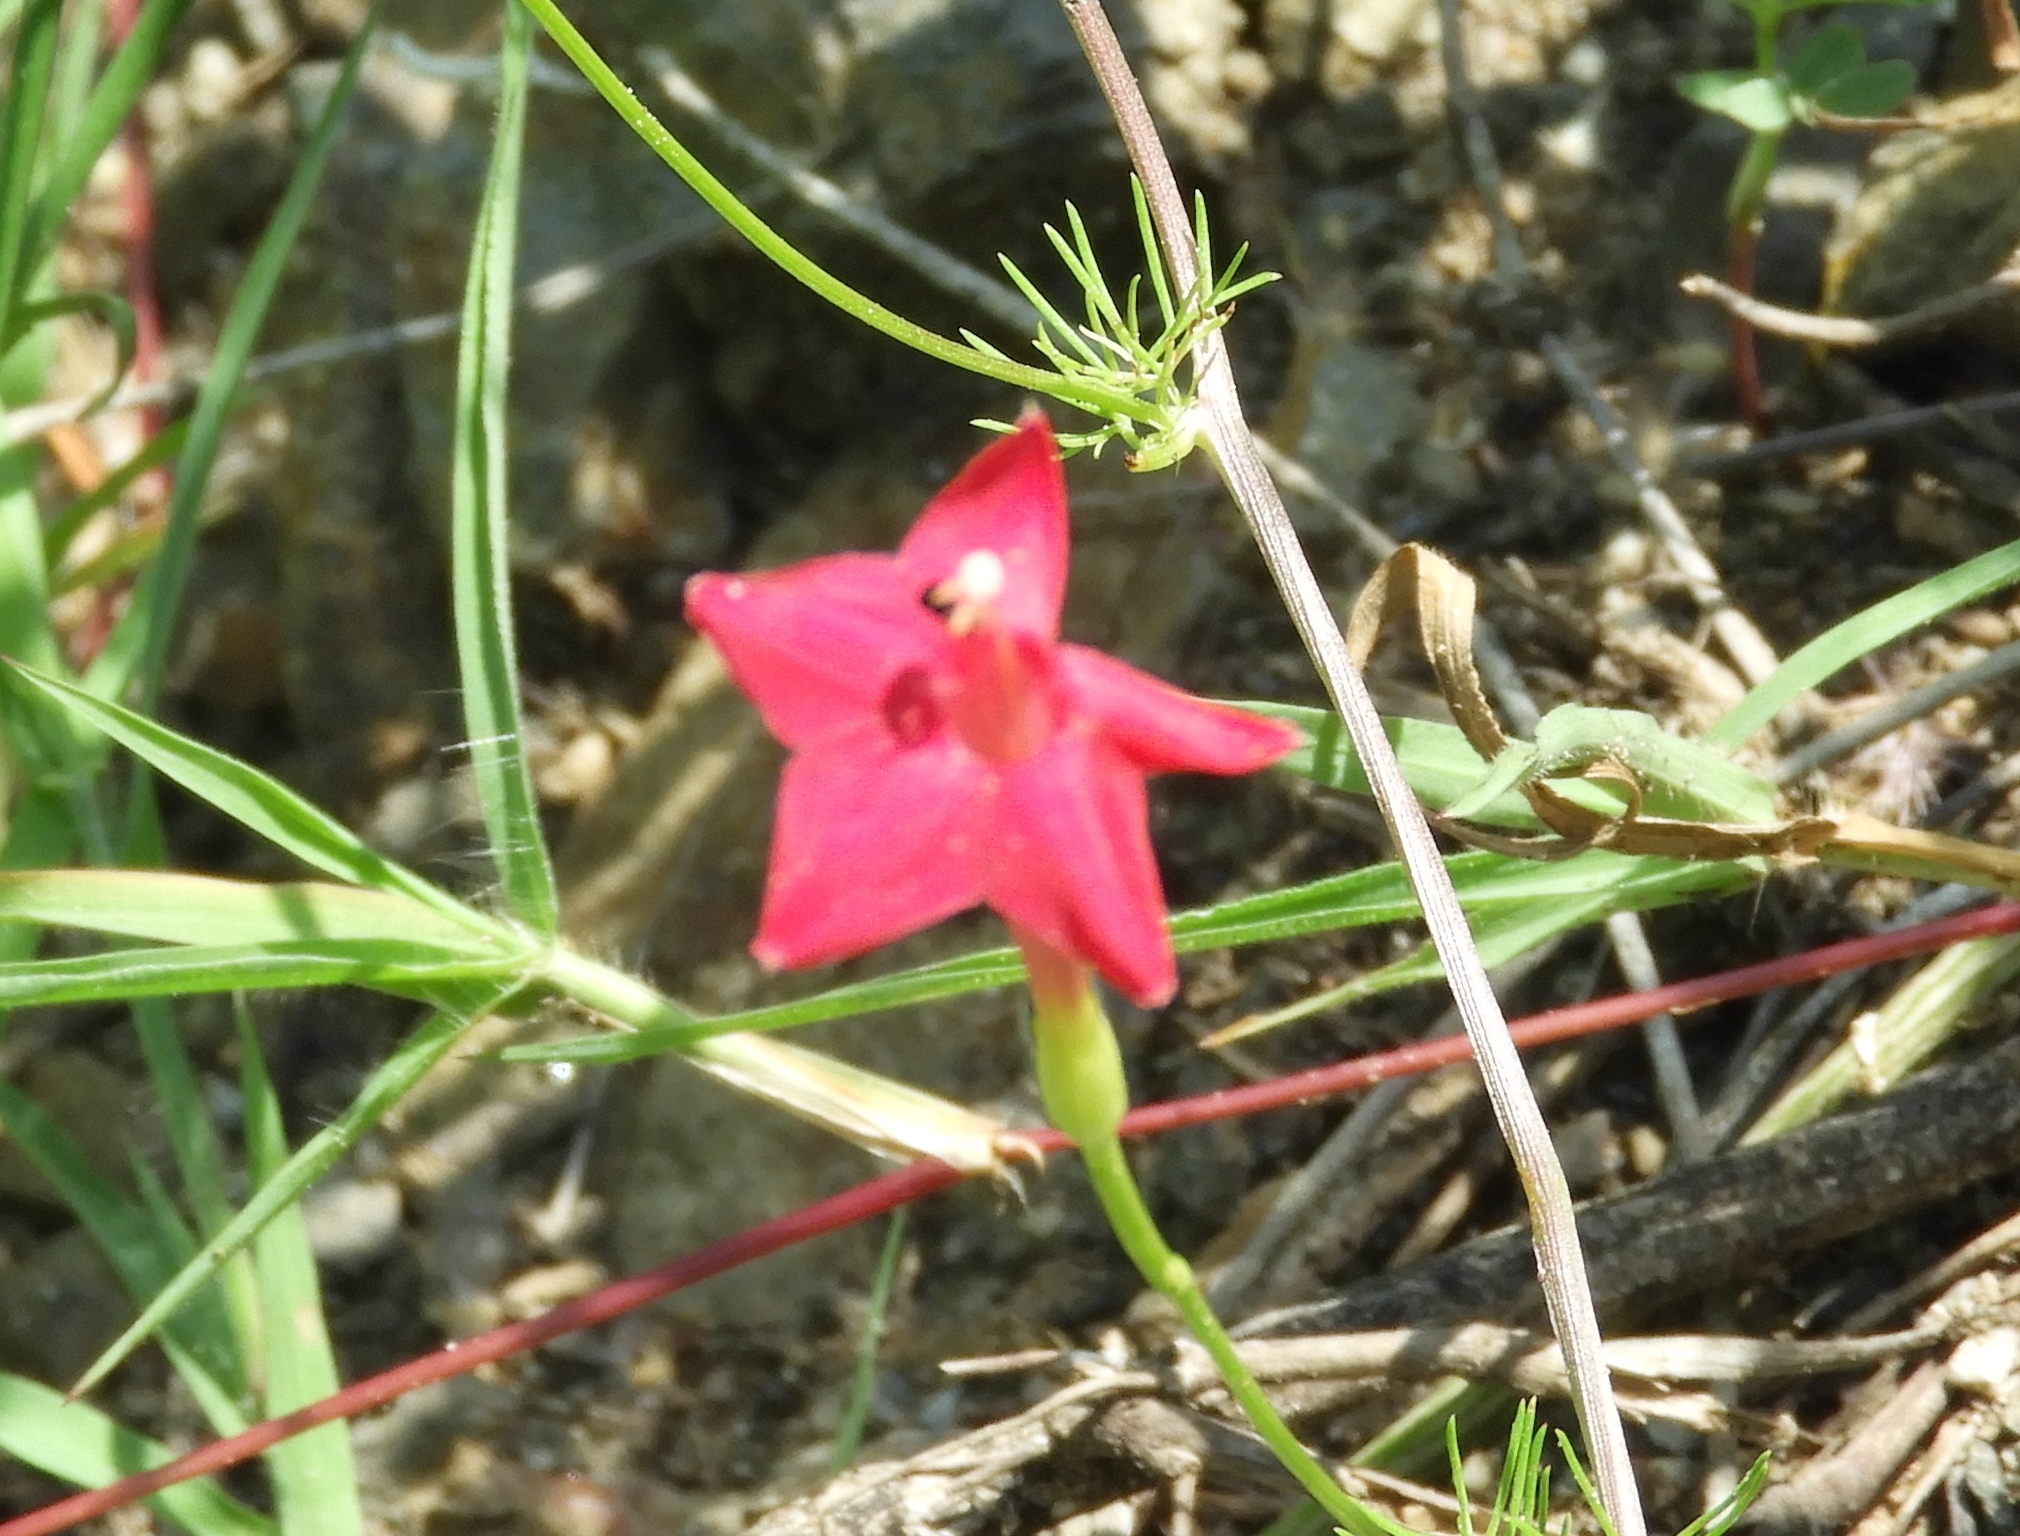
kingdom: Plantae
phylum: Tracheophyta
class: Magnoliopsida
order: Solanales
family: Convolvulaceae
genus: Ipomoea
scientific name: Ipomoea quamoclit
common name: Cypress vine
